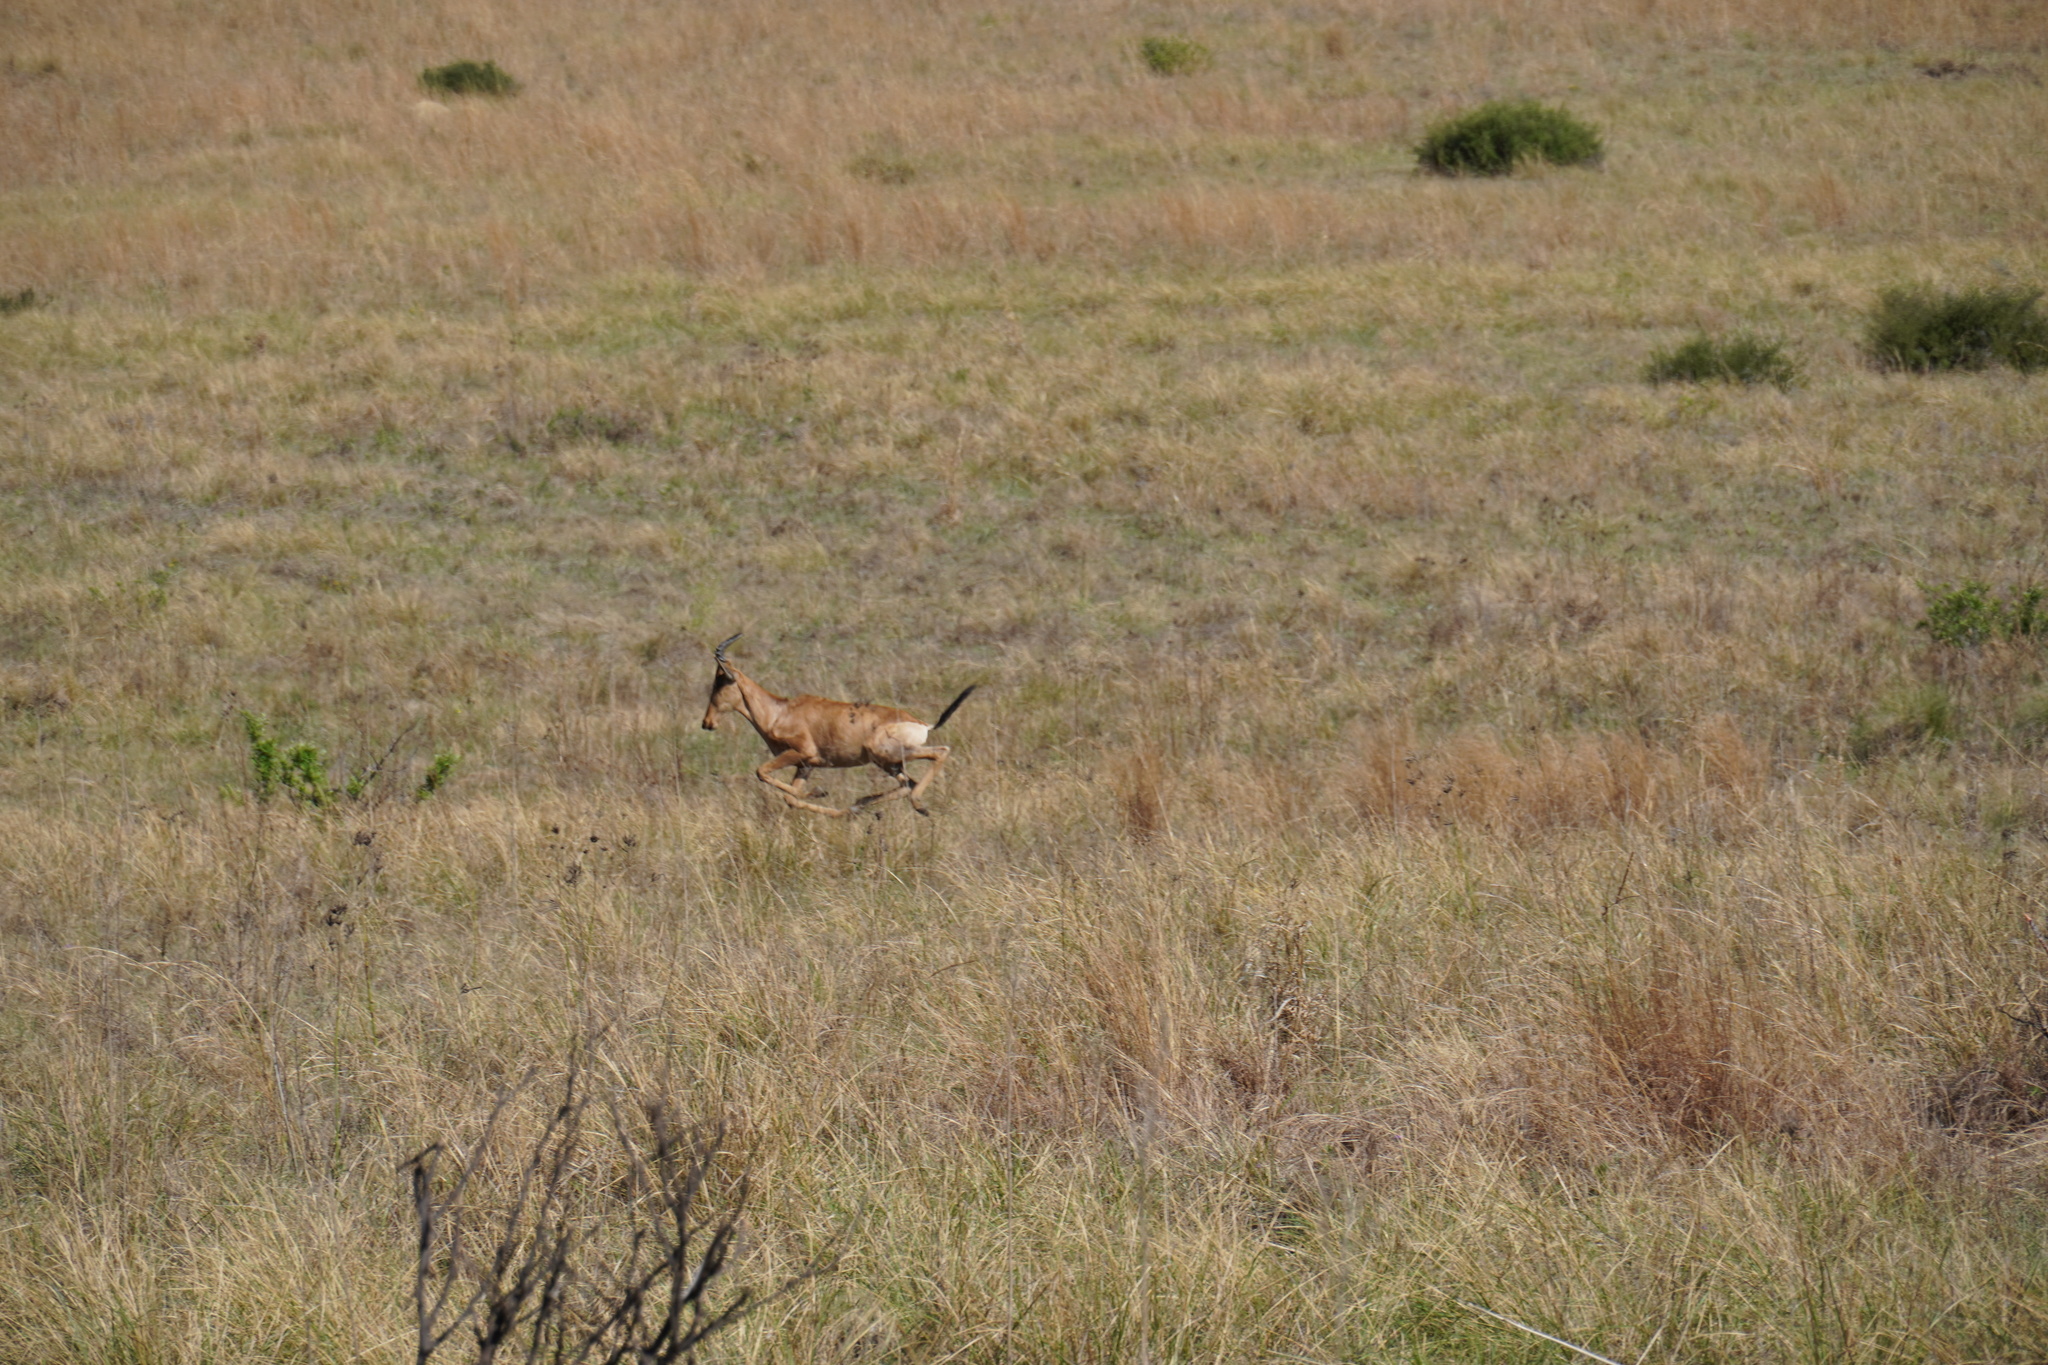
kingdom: Animalia
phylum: Chordata
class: Mammalia
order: Artiodactyla
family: Bovidae
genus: Alcelaphus
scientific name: Alcelaphus caama
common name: Red hartebeest
